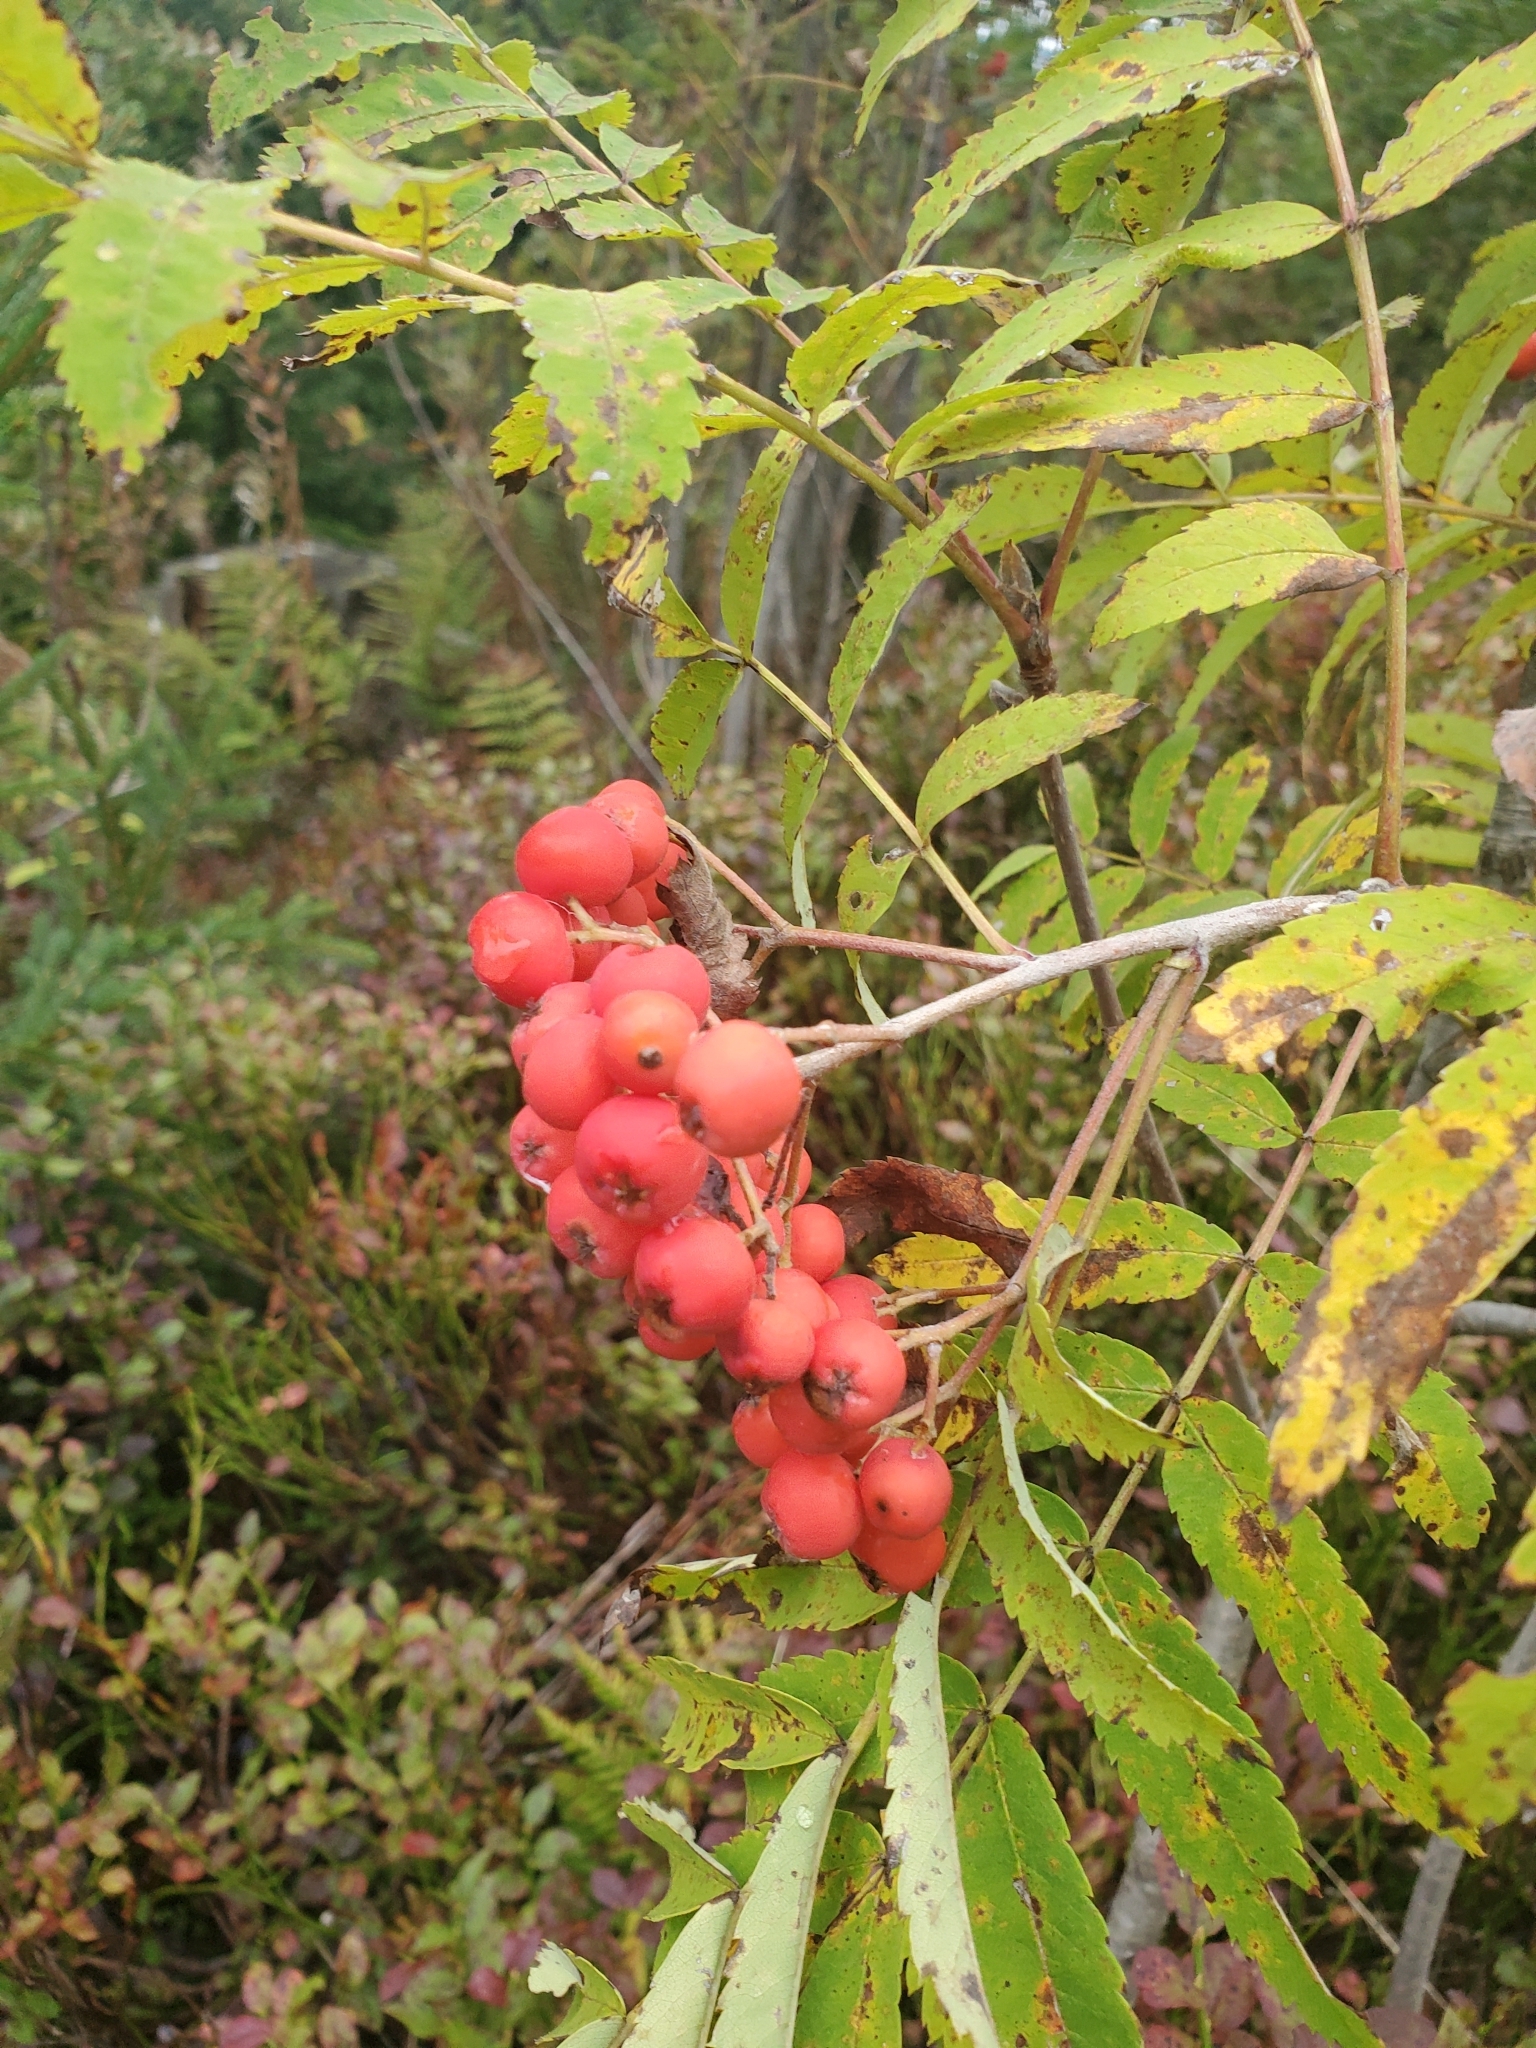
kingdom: Plantae
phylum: Tracheophyta
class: Magnoliopsida
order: Rosales
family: Rosaceae
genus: Sorbus
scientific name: Sorbus aucuparia
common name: Rowan
